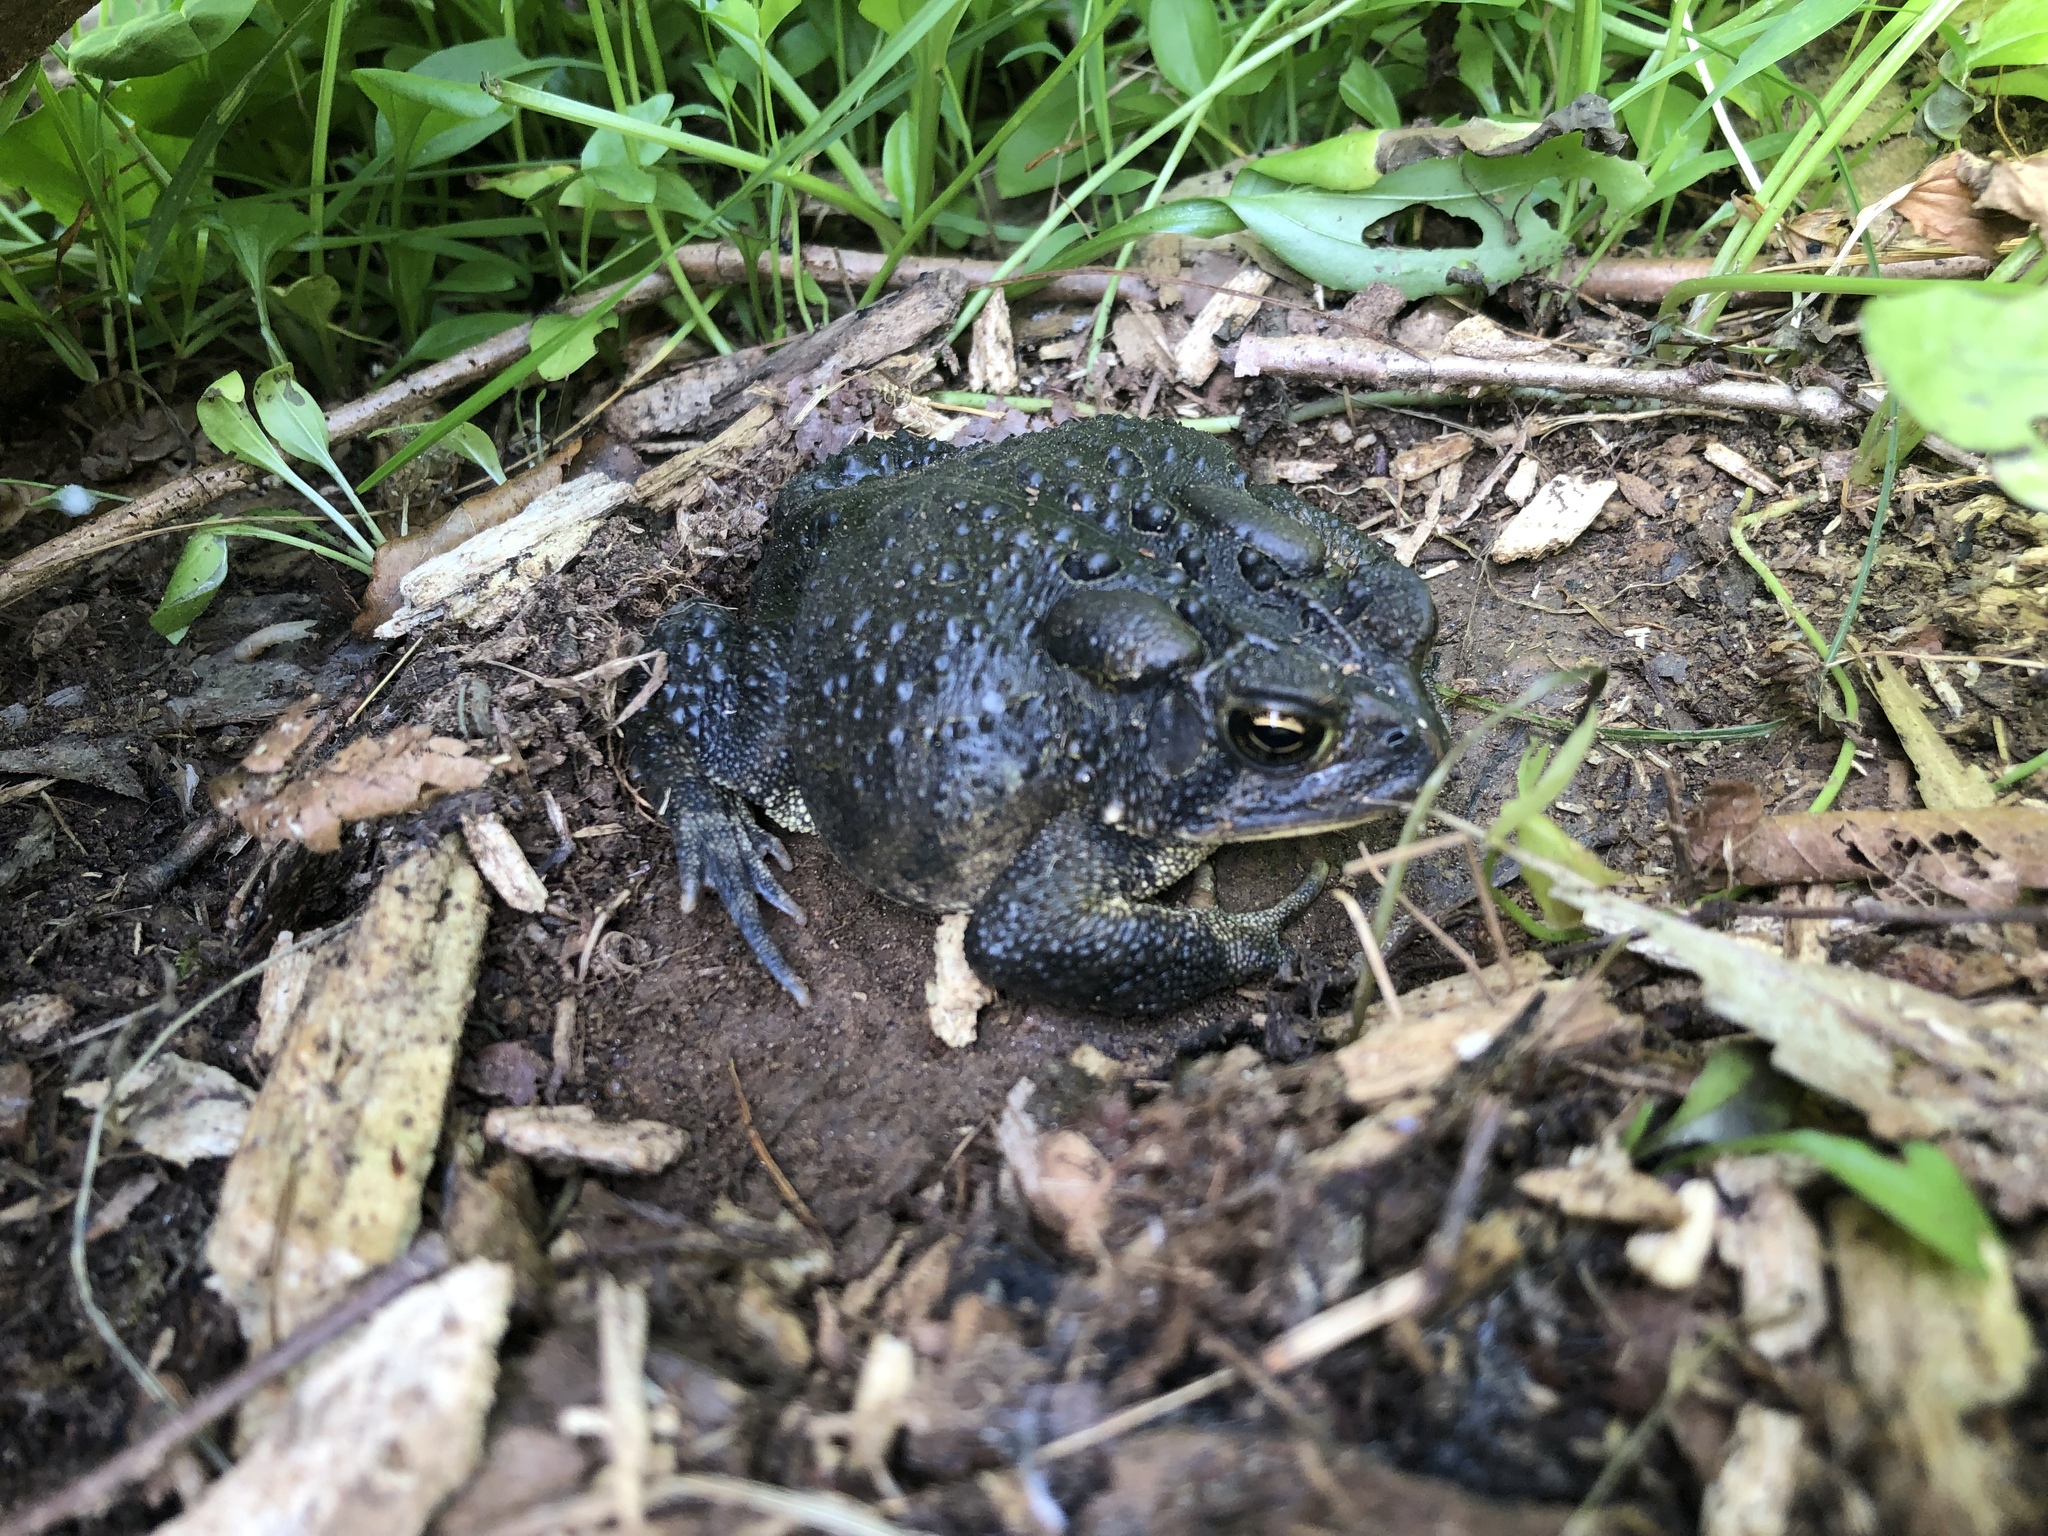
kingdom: Animalia
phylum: Chordata
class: Amphibia
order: Anura
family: Bufonidae
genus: Anaxyrus
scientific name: Anaxyrus americanus
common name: American toad
